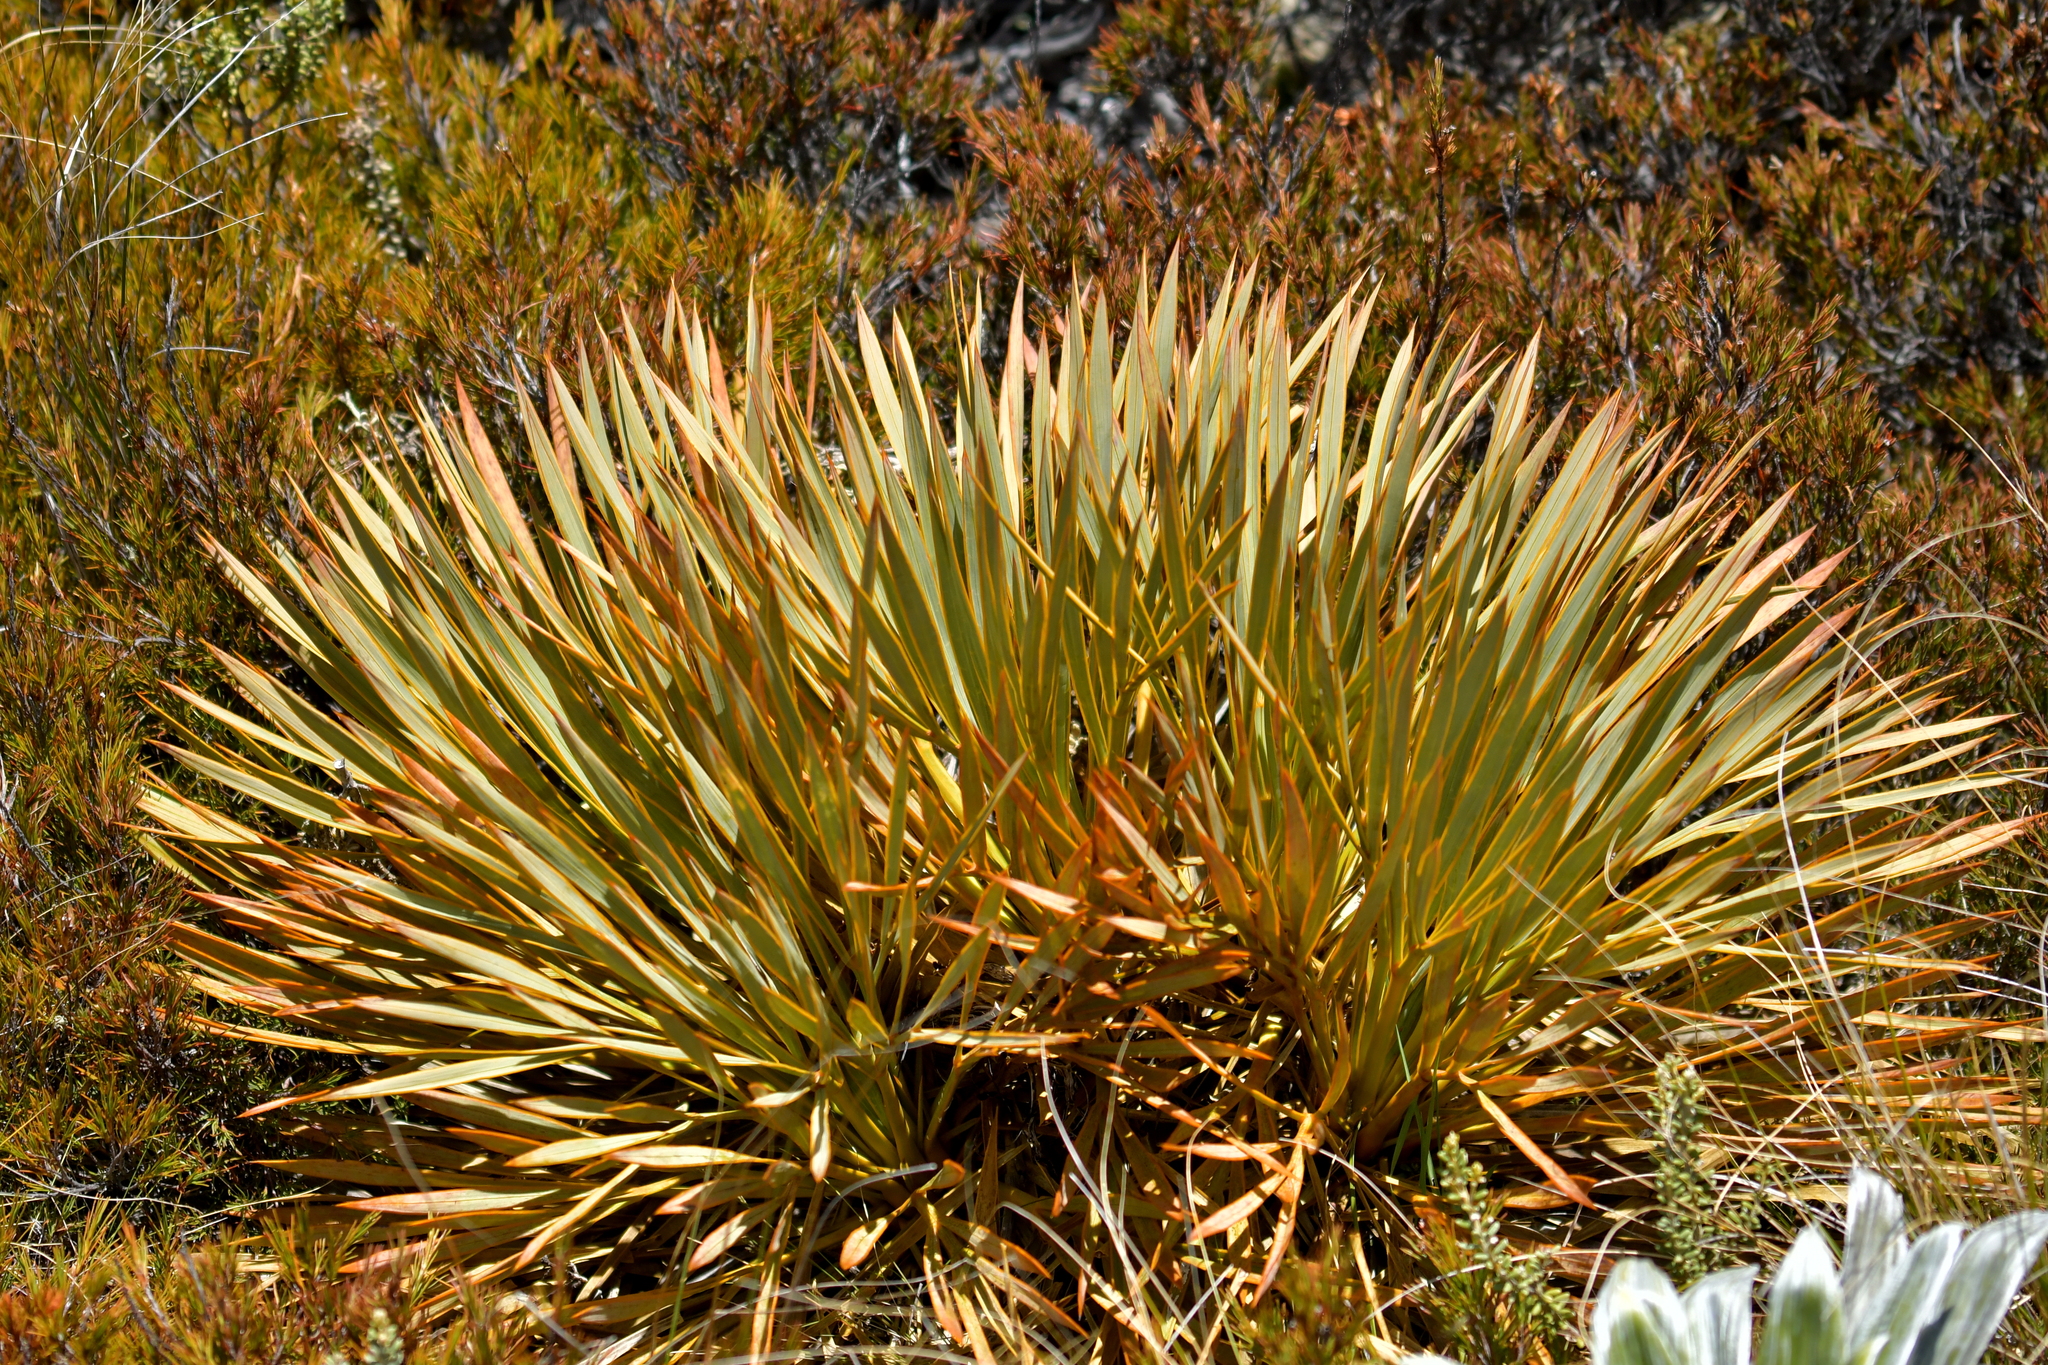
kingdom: Plantae
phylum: Tracheophyta
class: Magnoliopsida
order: Apiales
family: Apiaceae
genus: Aciphylla
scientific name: Aciphylla aurea
